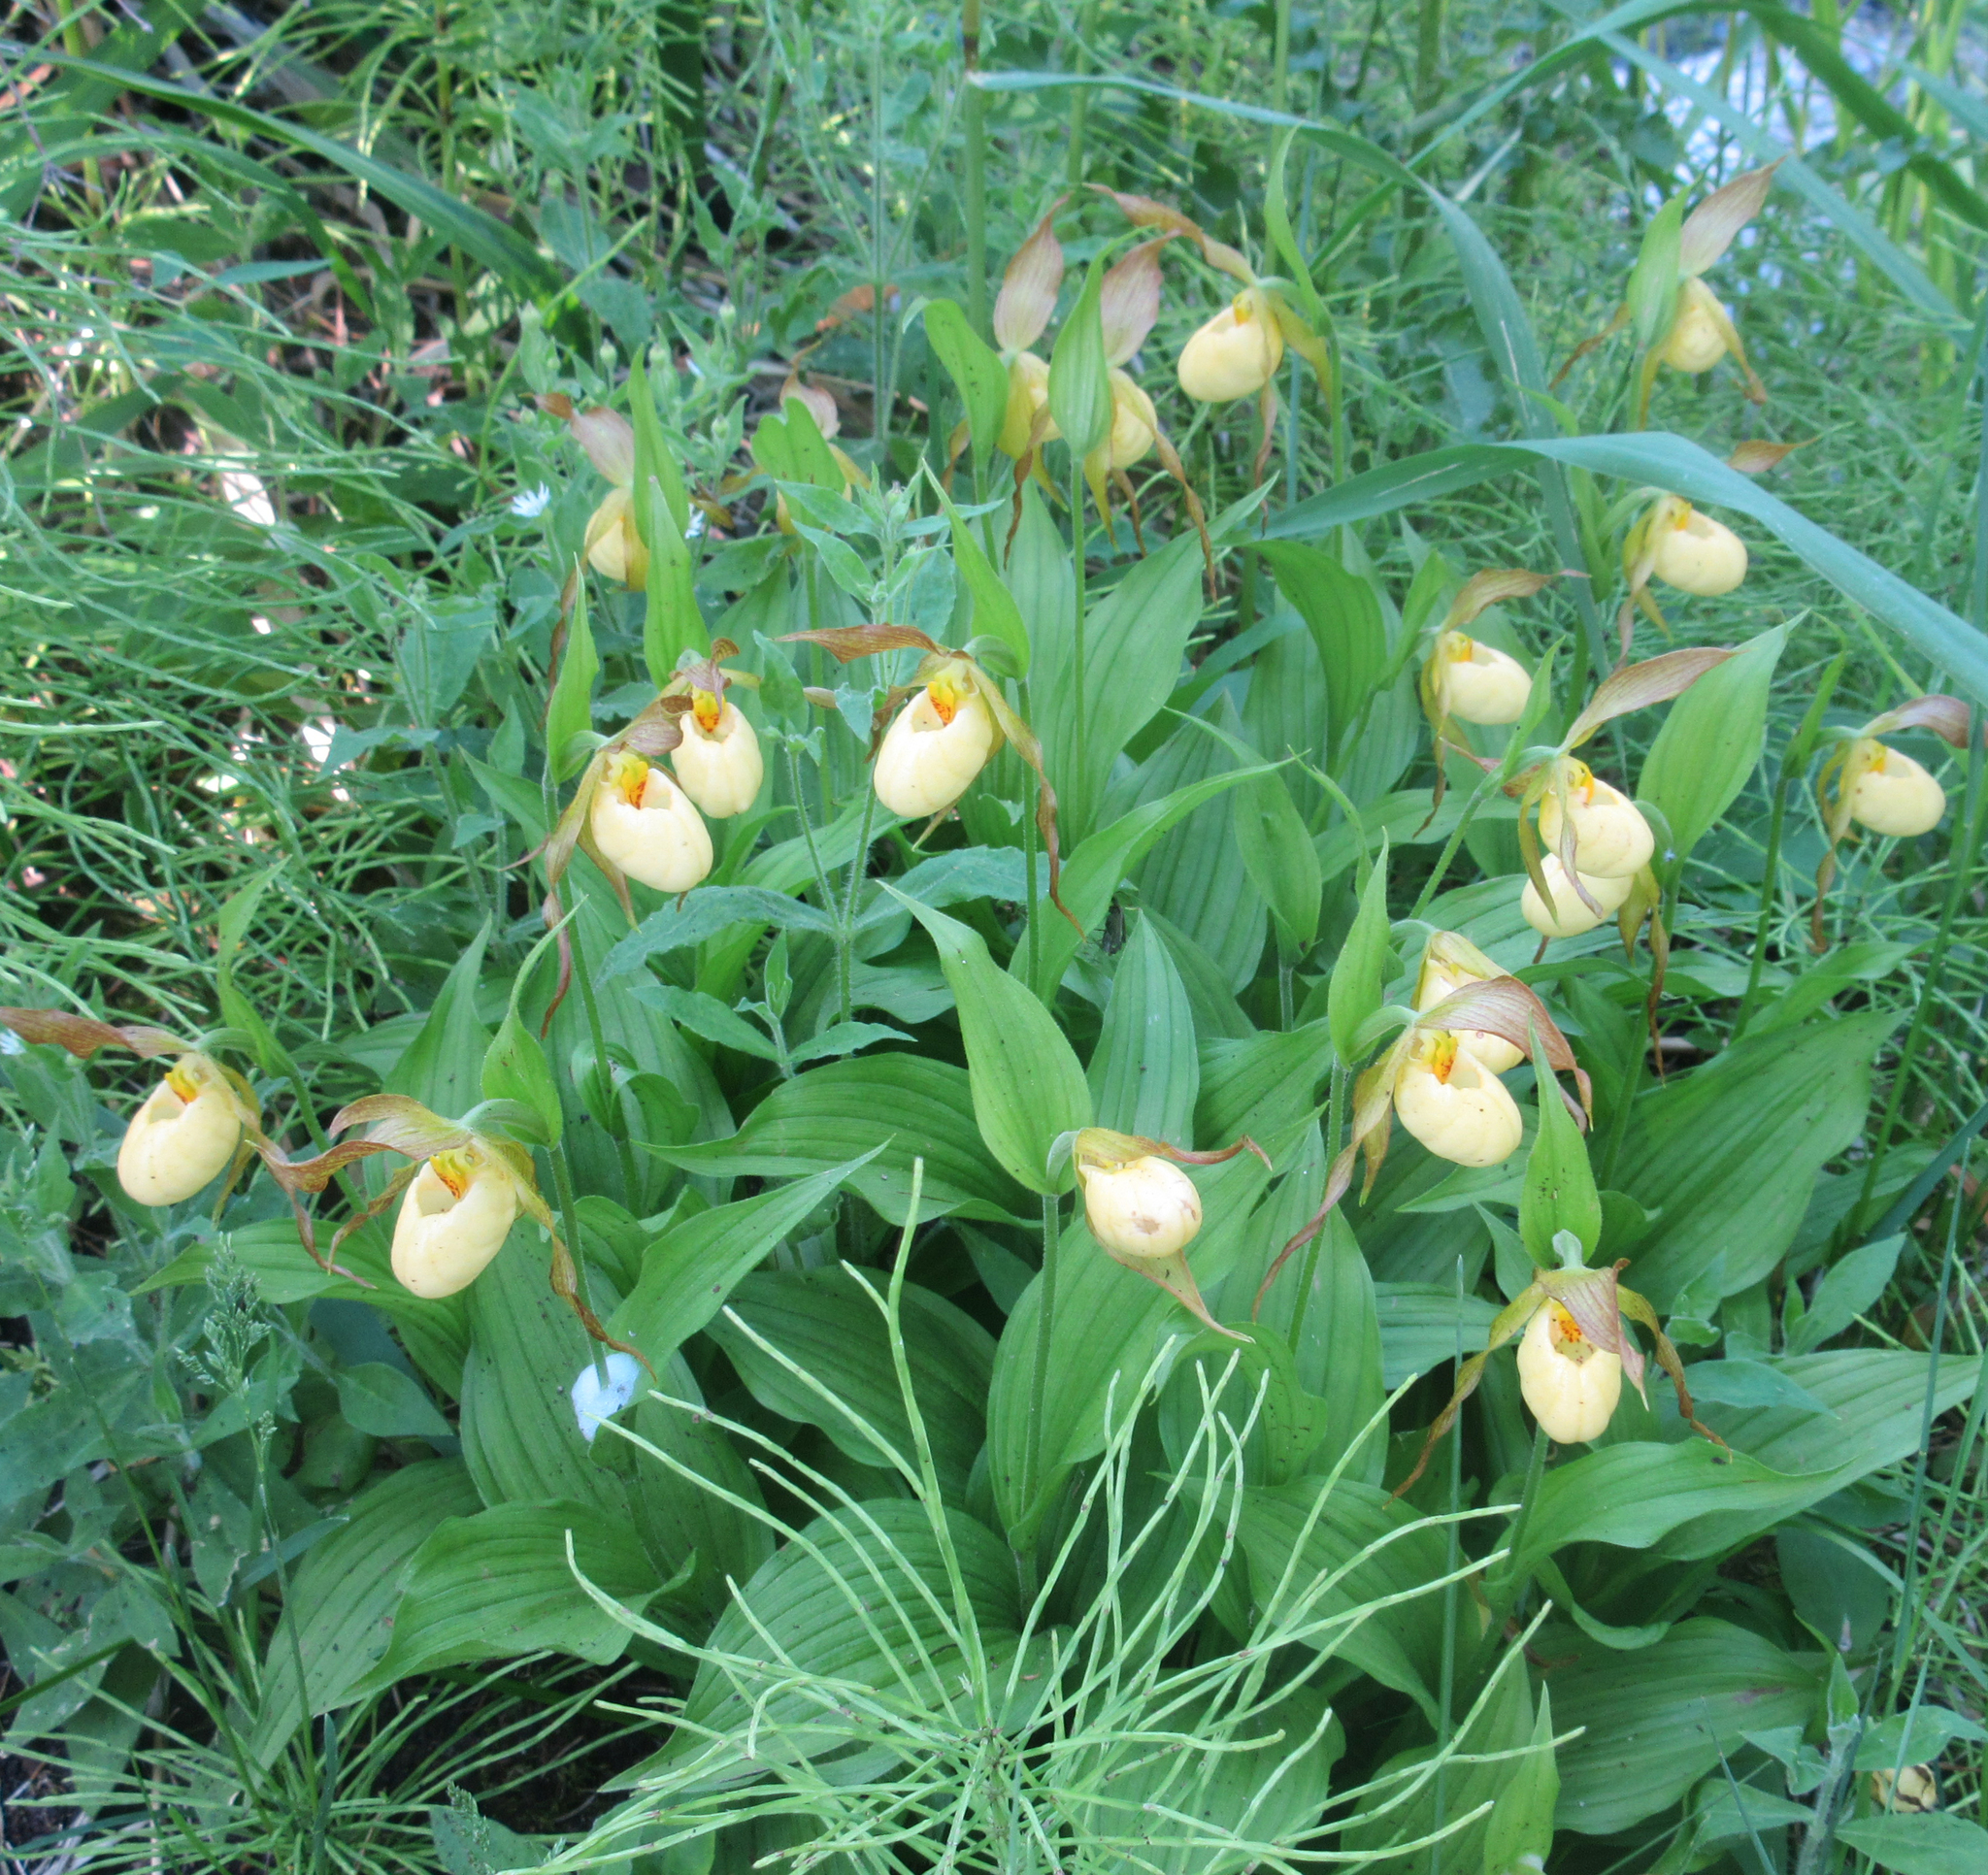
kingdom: Plantae
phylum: Tracheophyta
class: Liliopsida
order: Asparagales
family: Orchidaceae
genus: Cypripedium
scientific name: Cypripedium parviflorum
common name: American yellow lady's-slipper
